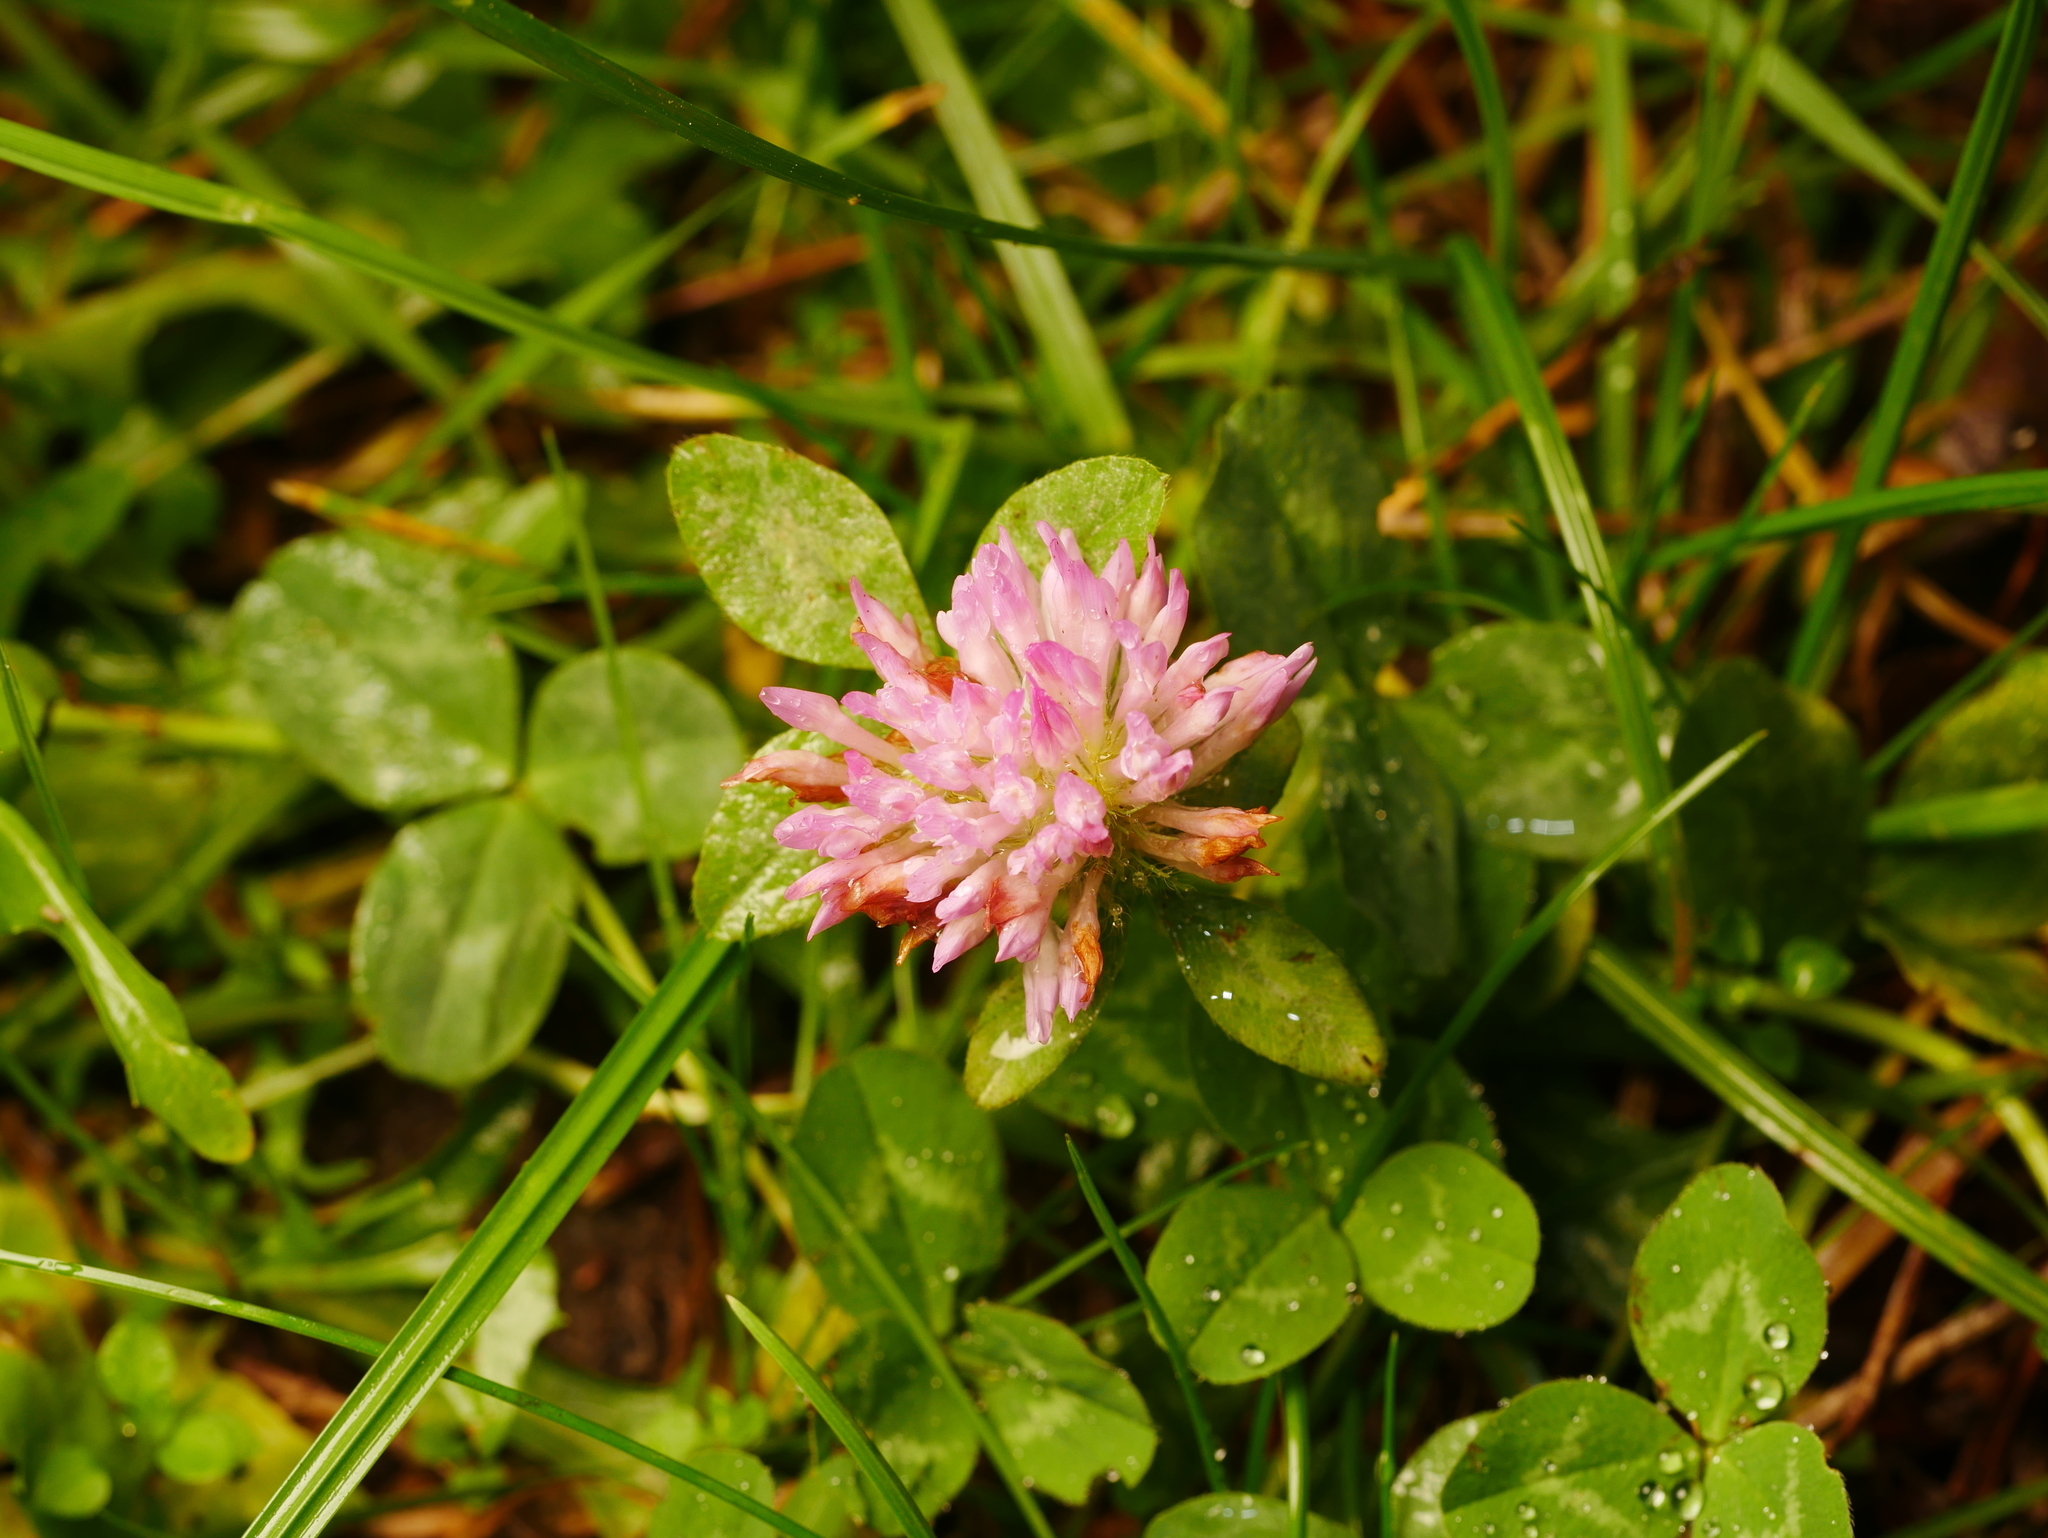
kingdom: Plantae
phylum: Tracheophyta
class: Magnoliopsida
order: Fabales
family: Fabaceae
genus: Trifolium
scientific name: Trifolium pratense
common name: Red clover
